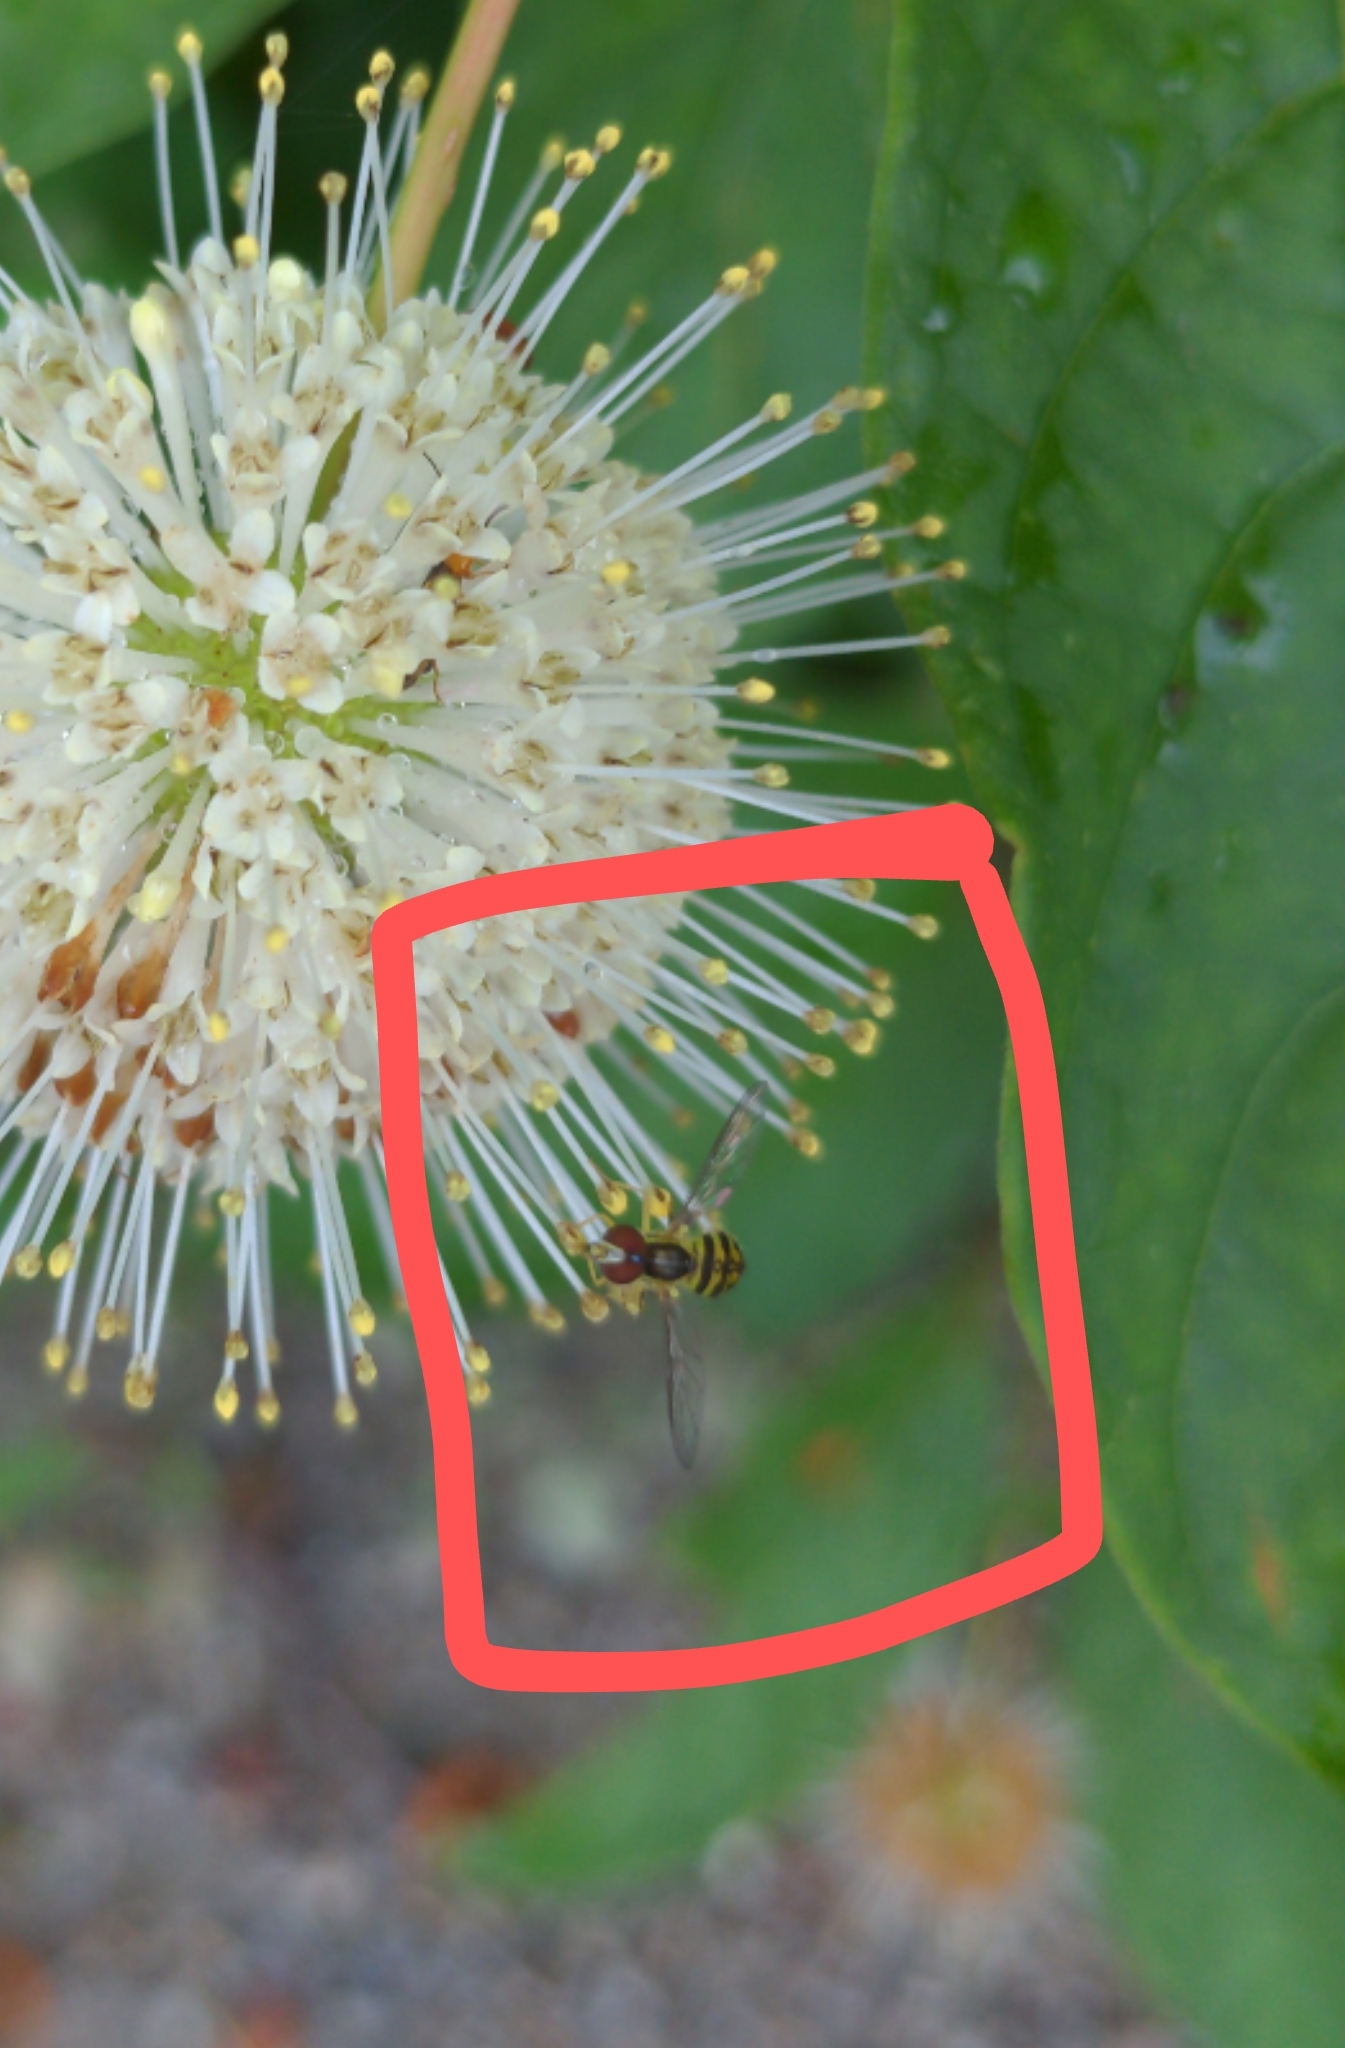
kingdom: Animalia
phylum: Arthropoda
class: Insecta
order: Diptera
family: Syrphidae
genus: Toxomerus
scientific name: Toxomerus geminatus
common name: Eastern calligrapher
